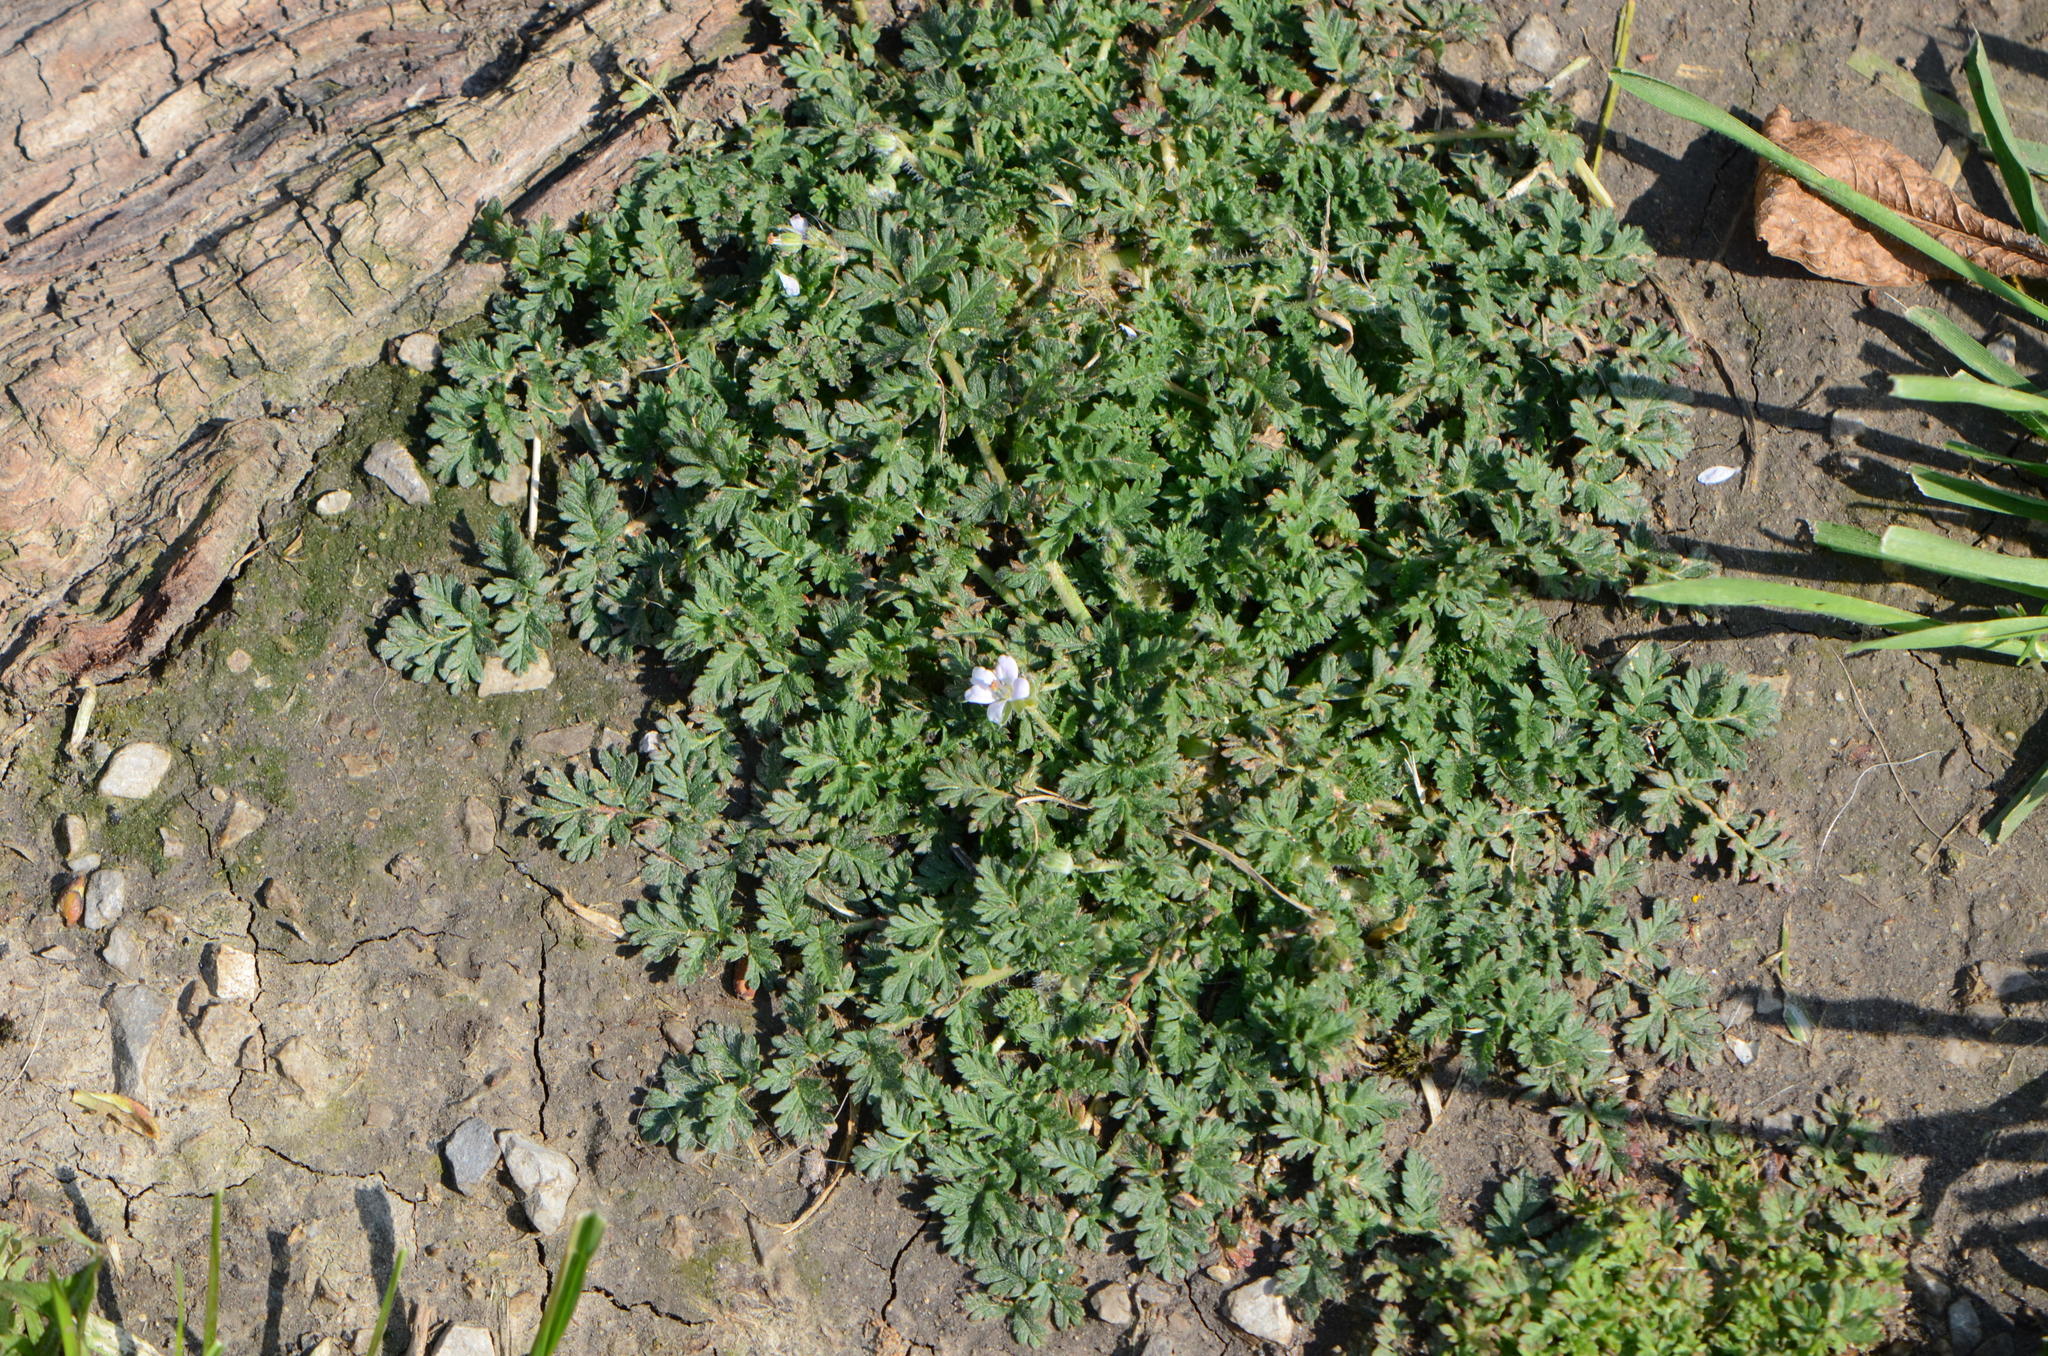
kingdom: Plantae
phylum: Tracheophyta
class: Magnoliopsida
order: Geraniales
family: Geraniaceae
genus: Erodium
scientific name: Erodium cicutarium
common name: Common stork's-bill
